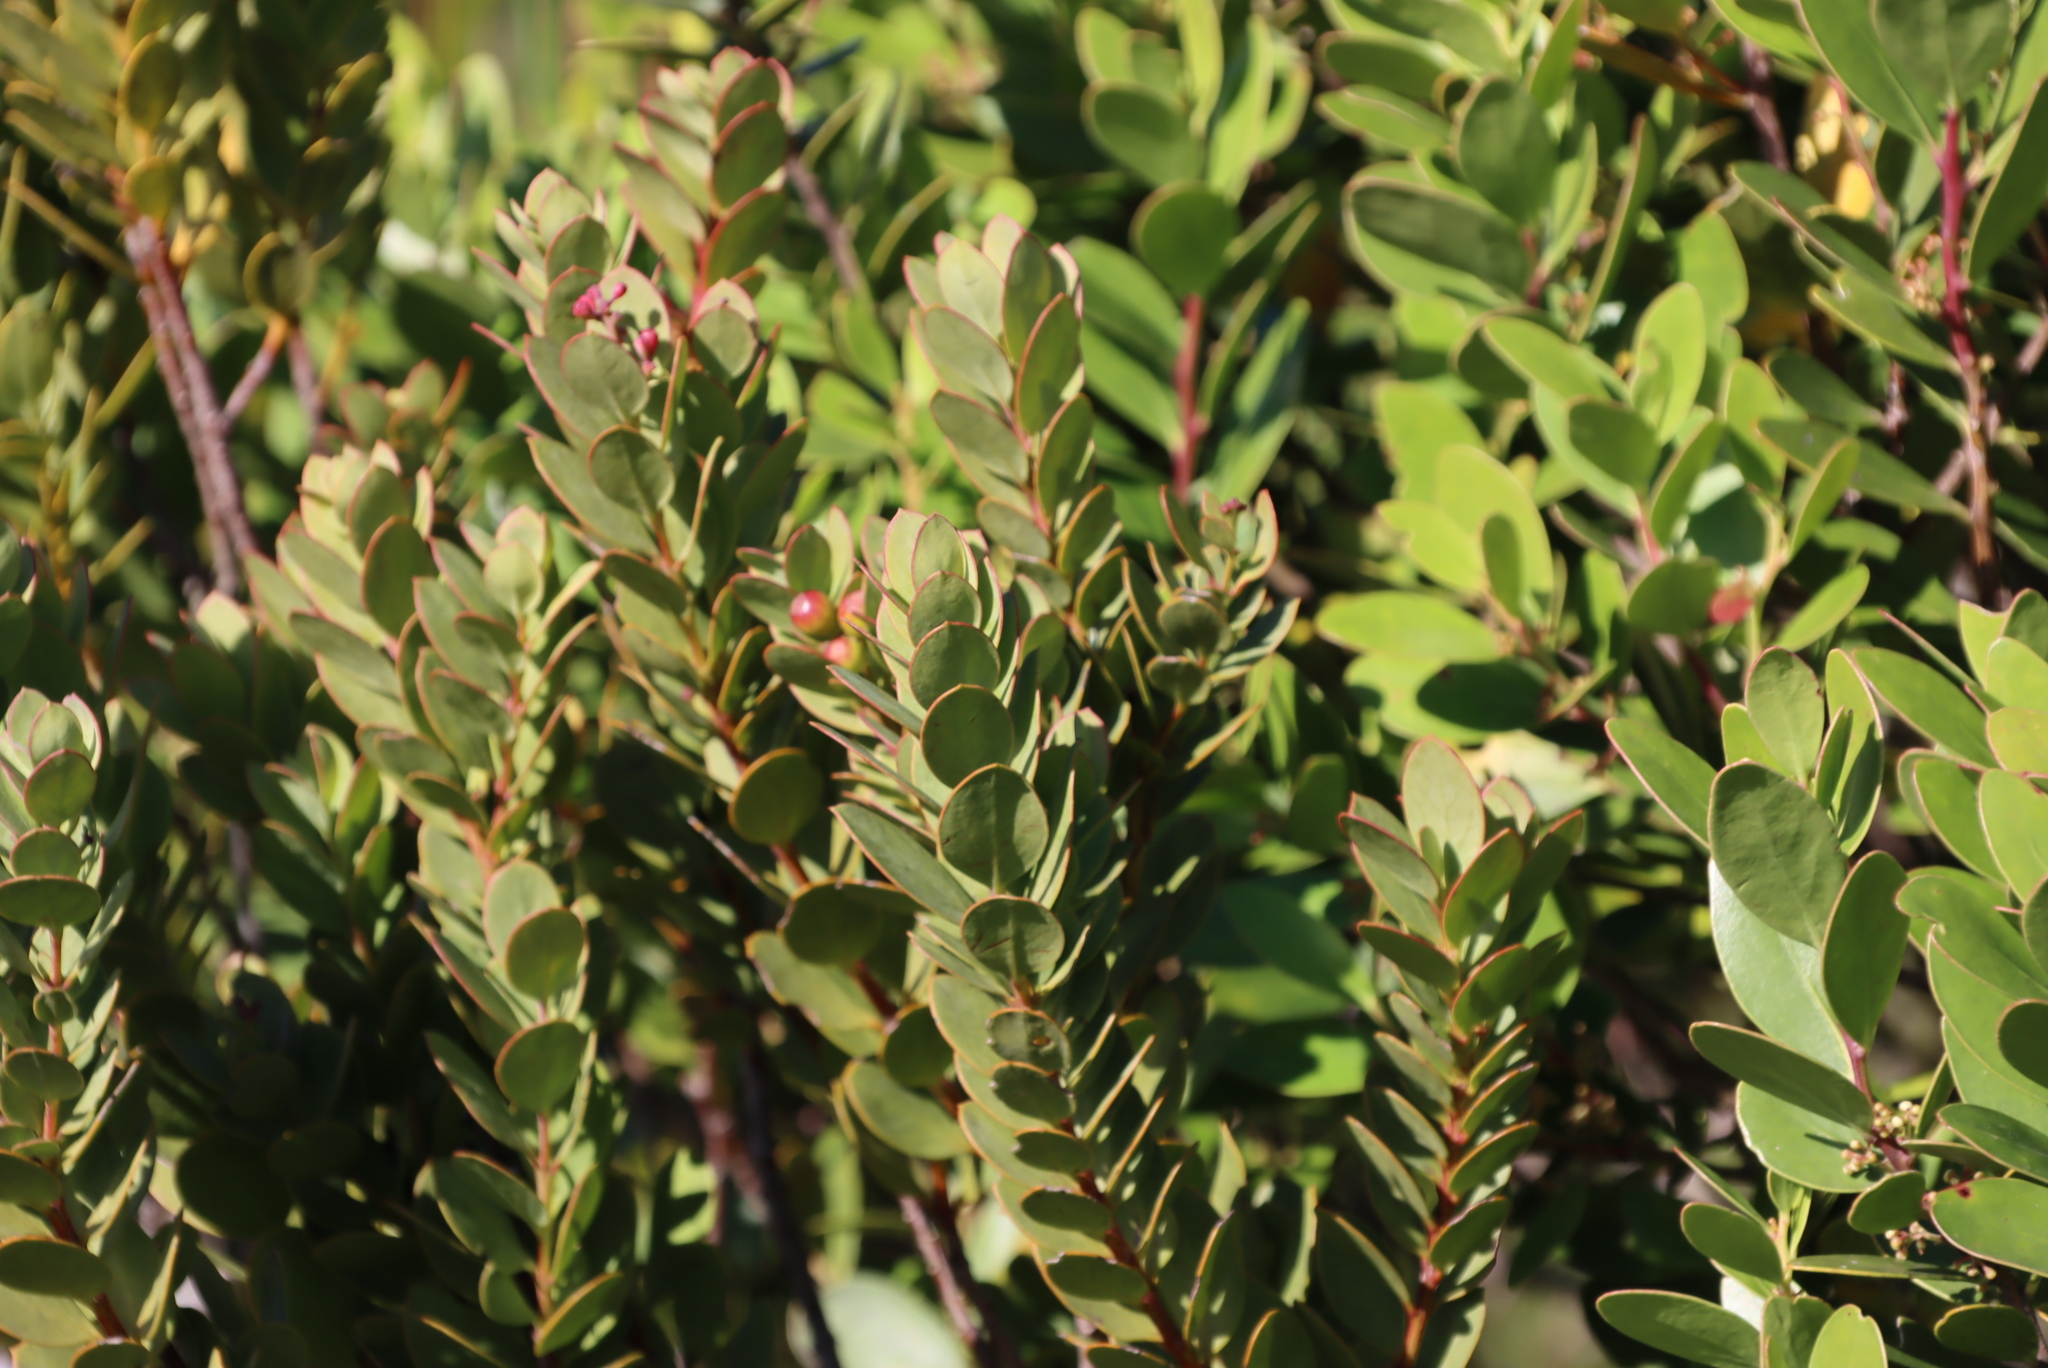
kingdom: Plantae
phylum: Tracheophyta
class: Magnoliopsida
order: Santalales
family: Santalaceae
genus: Osyris
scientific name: Osyris compressa
